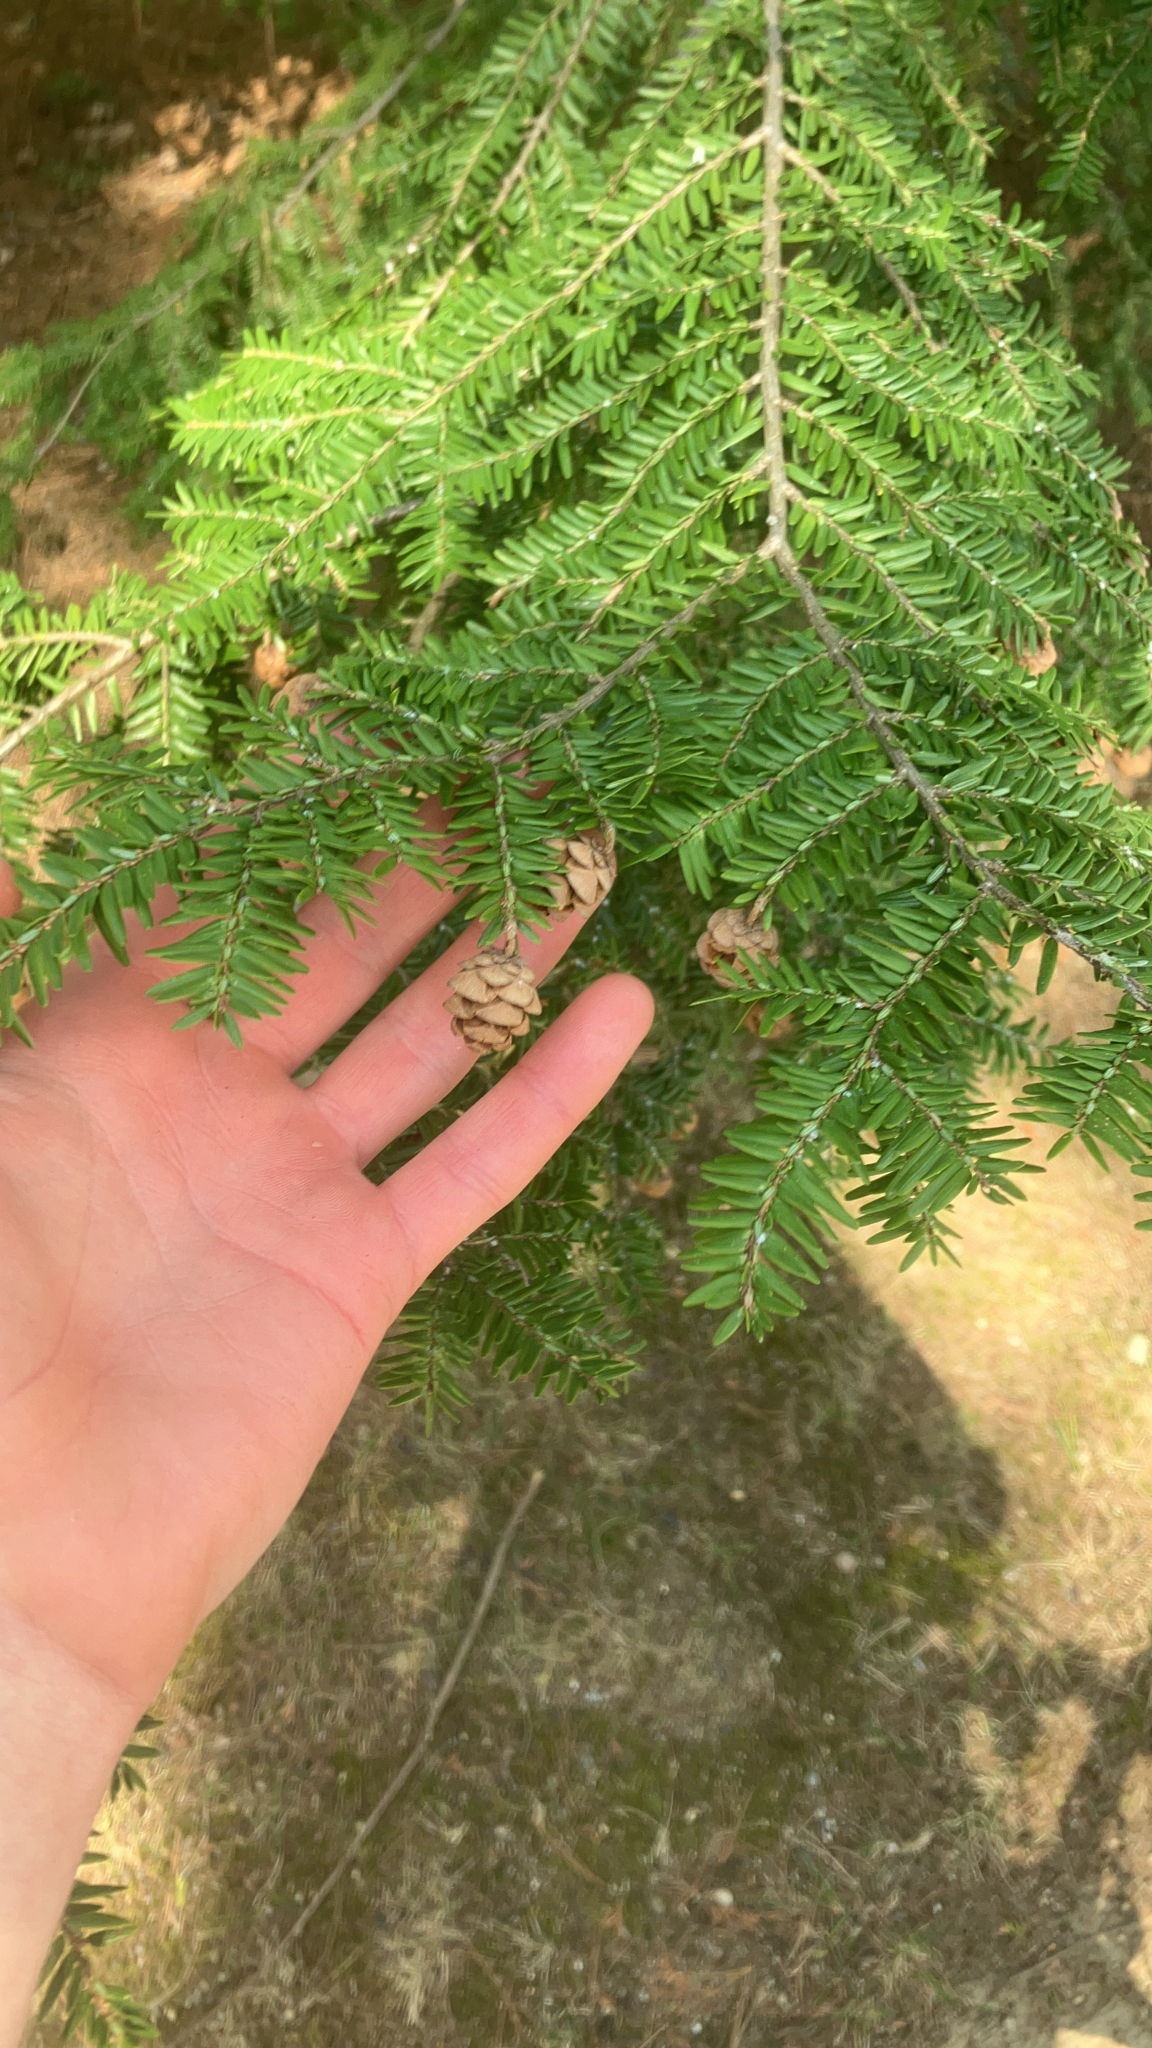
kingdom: Plantae
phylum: Tracheophyta
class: Pinopsida
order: Pinales
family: Pinaceae
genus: Tsuga
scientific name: Tsuga canadensis
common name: Eastern hemlock
